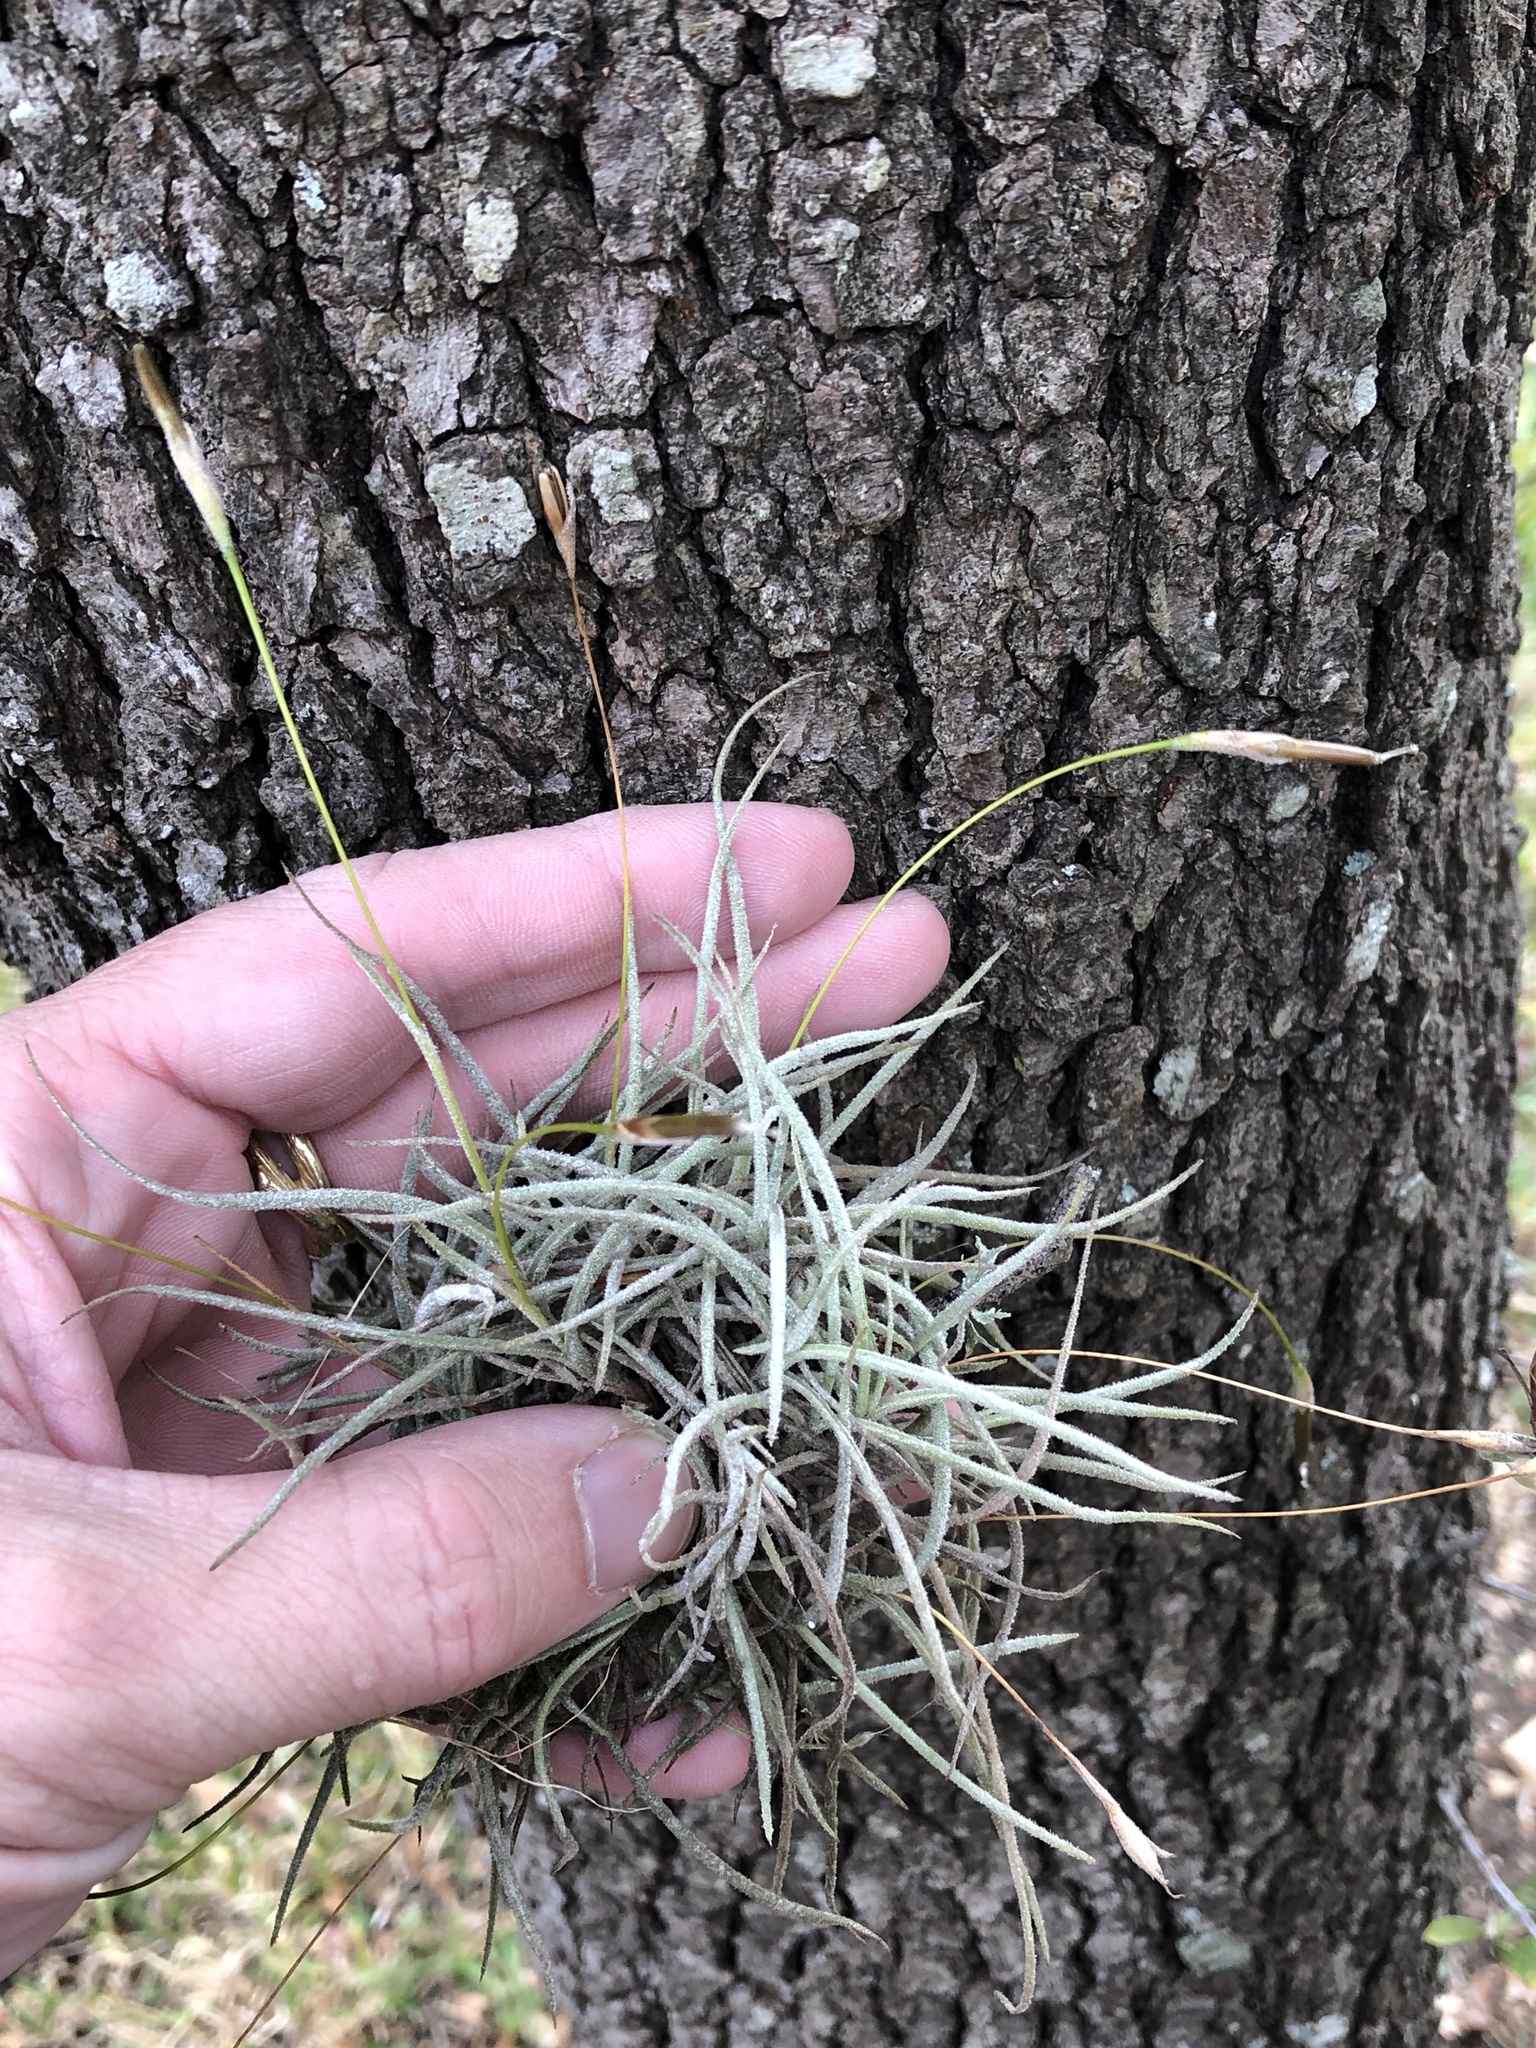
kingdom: Plantae
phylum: Tracheophyta
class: Liliopsida
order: Poales
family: Bromeliaceae
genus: Tillandsia
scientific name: Tillandsia recurvata
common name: Small ballmoss
